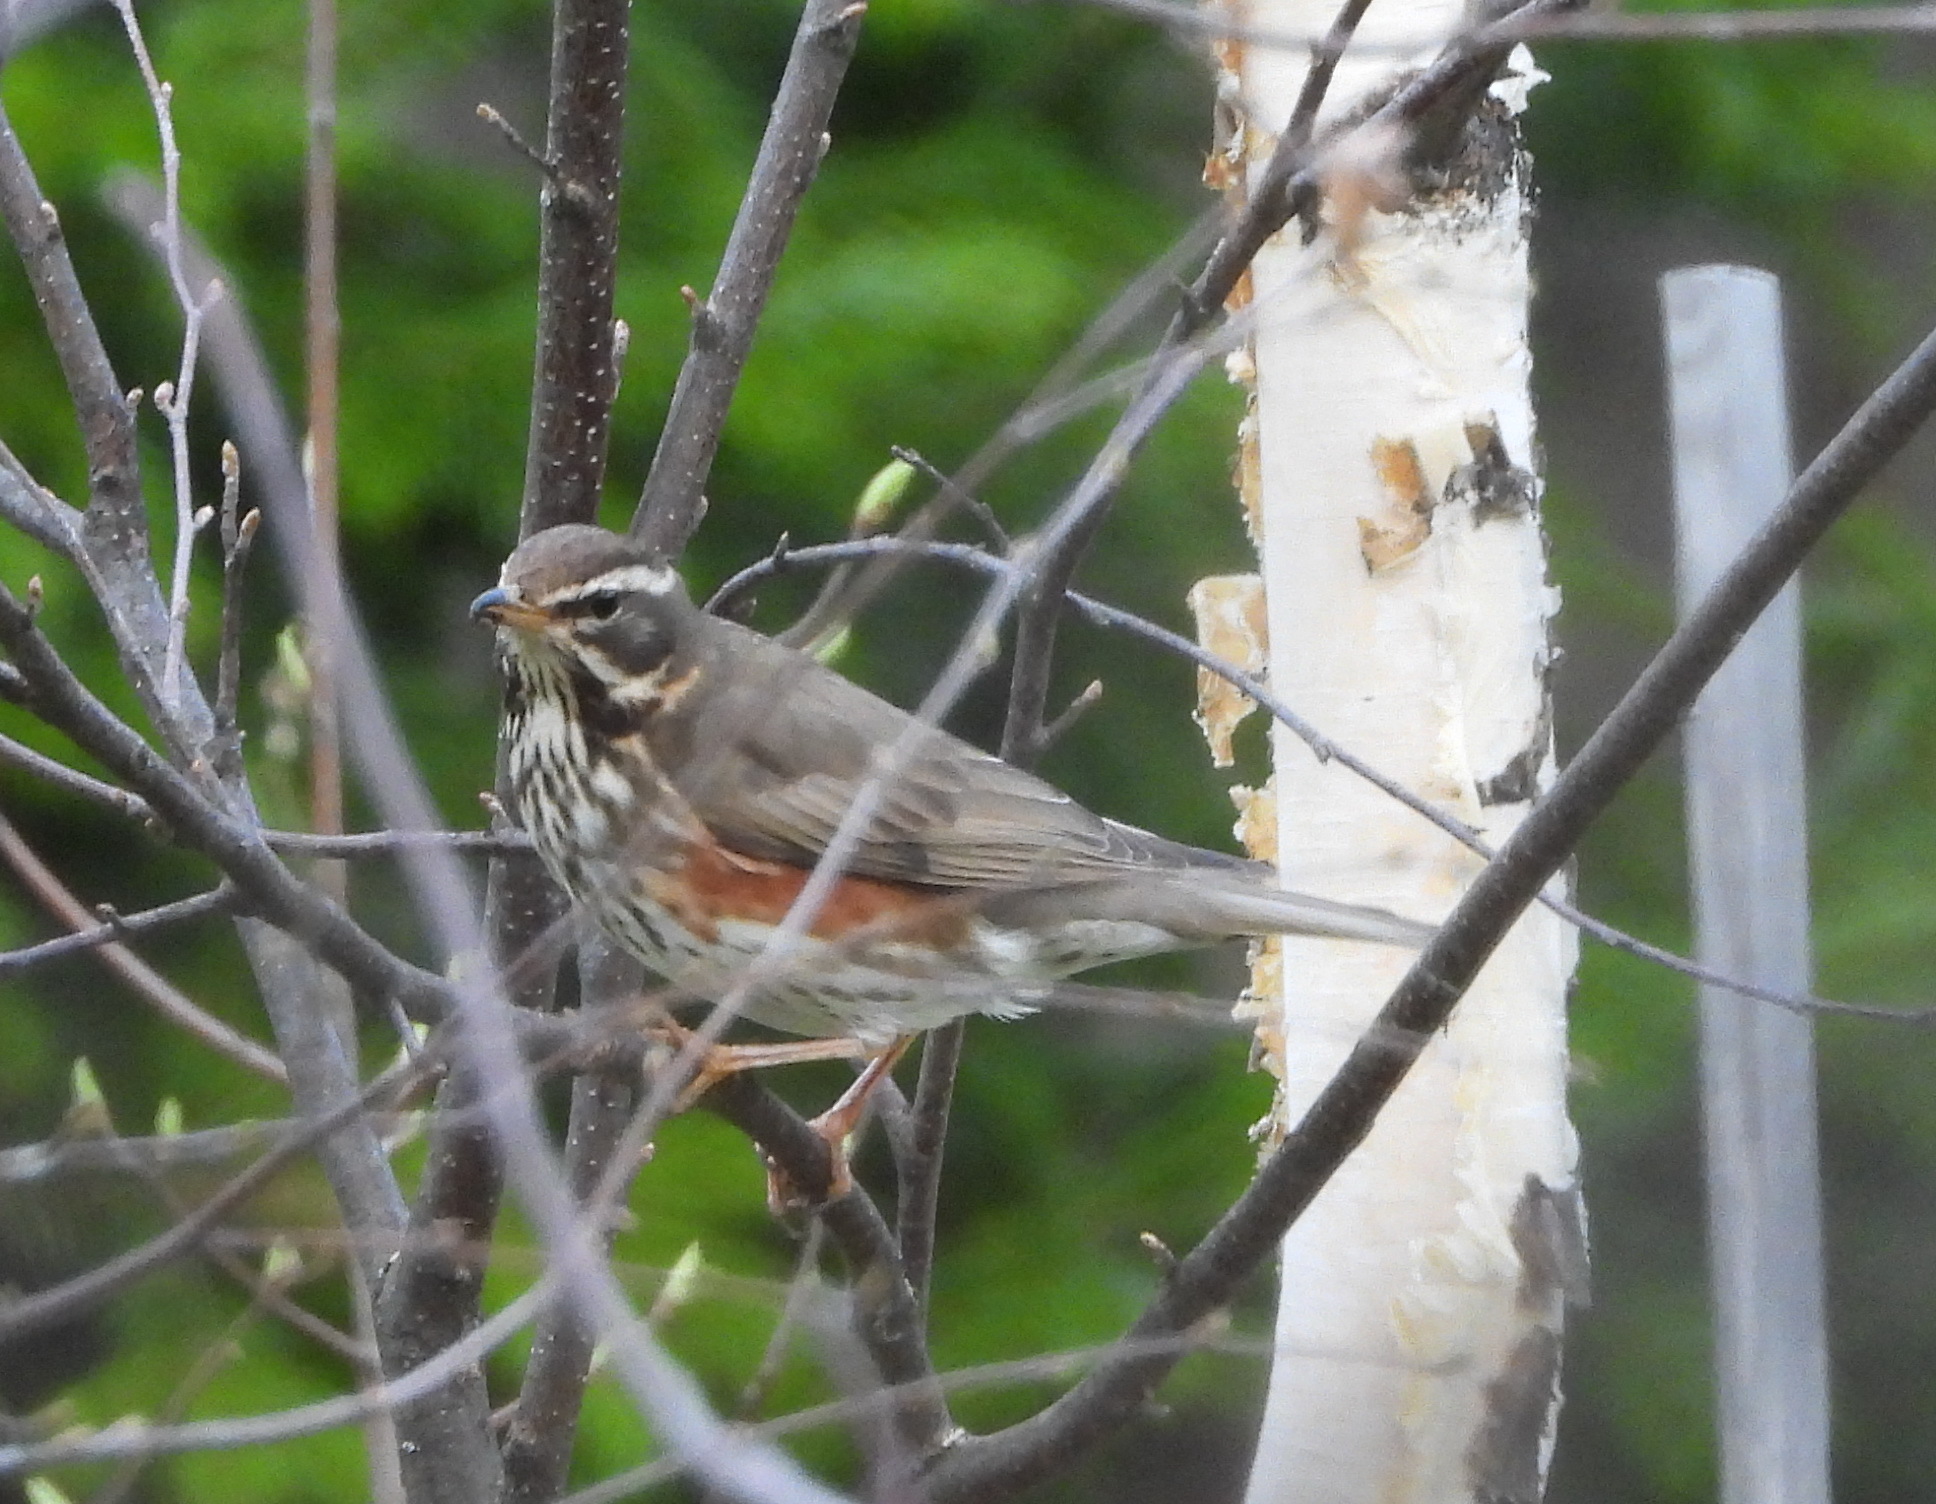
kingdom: Animalia
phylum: Chordata
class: Aves
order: Passeriformes
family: Turdidae
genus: Turdus
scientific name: Turdus iliacus
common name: Redwing
